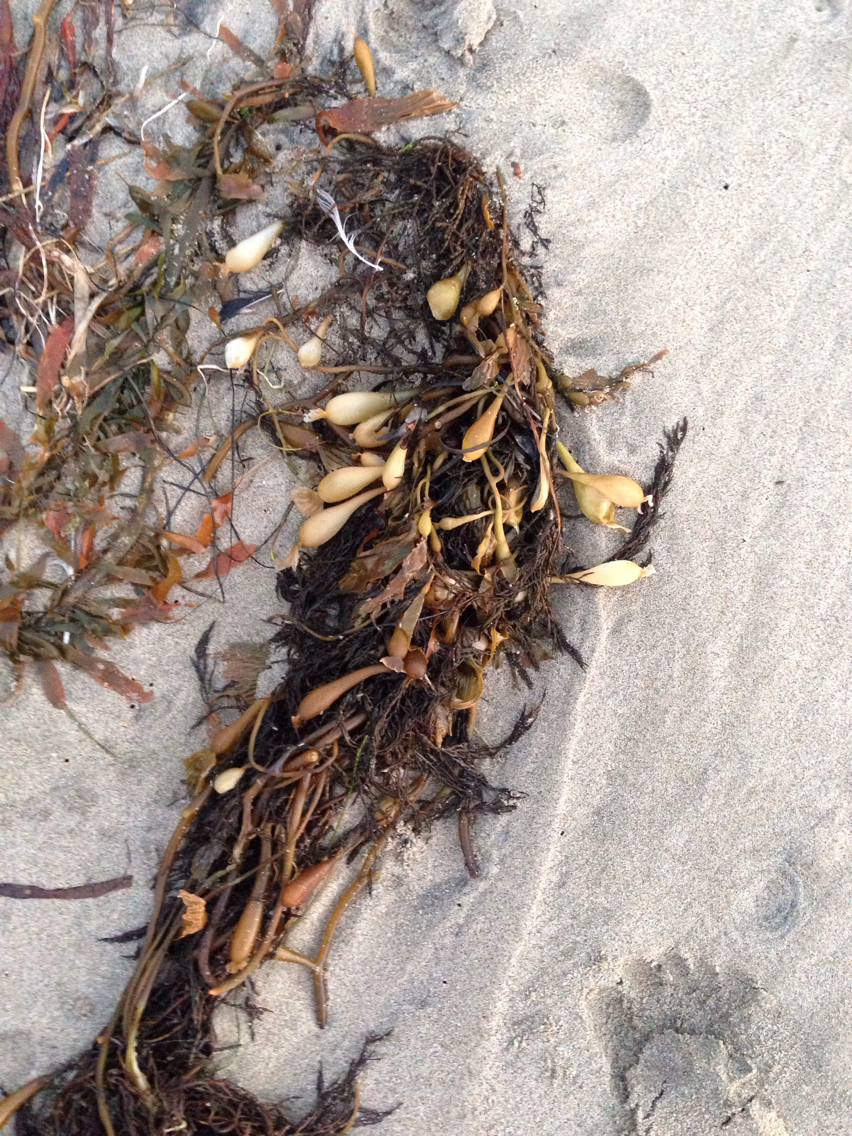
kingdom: Chromista
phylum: Ochrophyta
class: Phaeophyceae
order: Laminariales
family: Laminariaceae
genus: Macrocystis
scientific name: Macrocystis pyrifera
